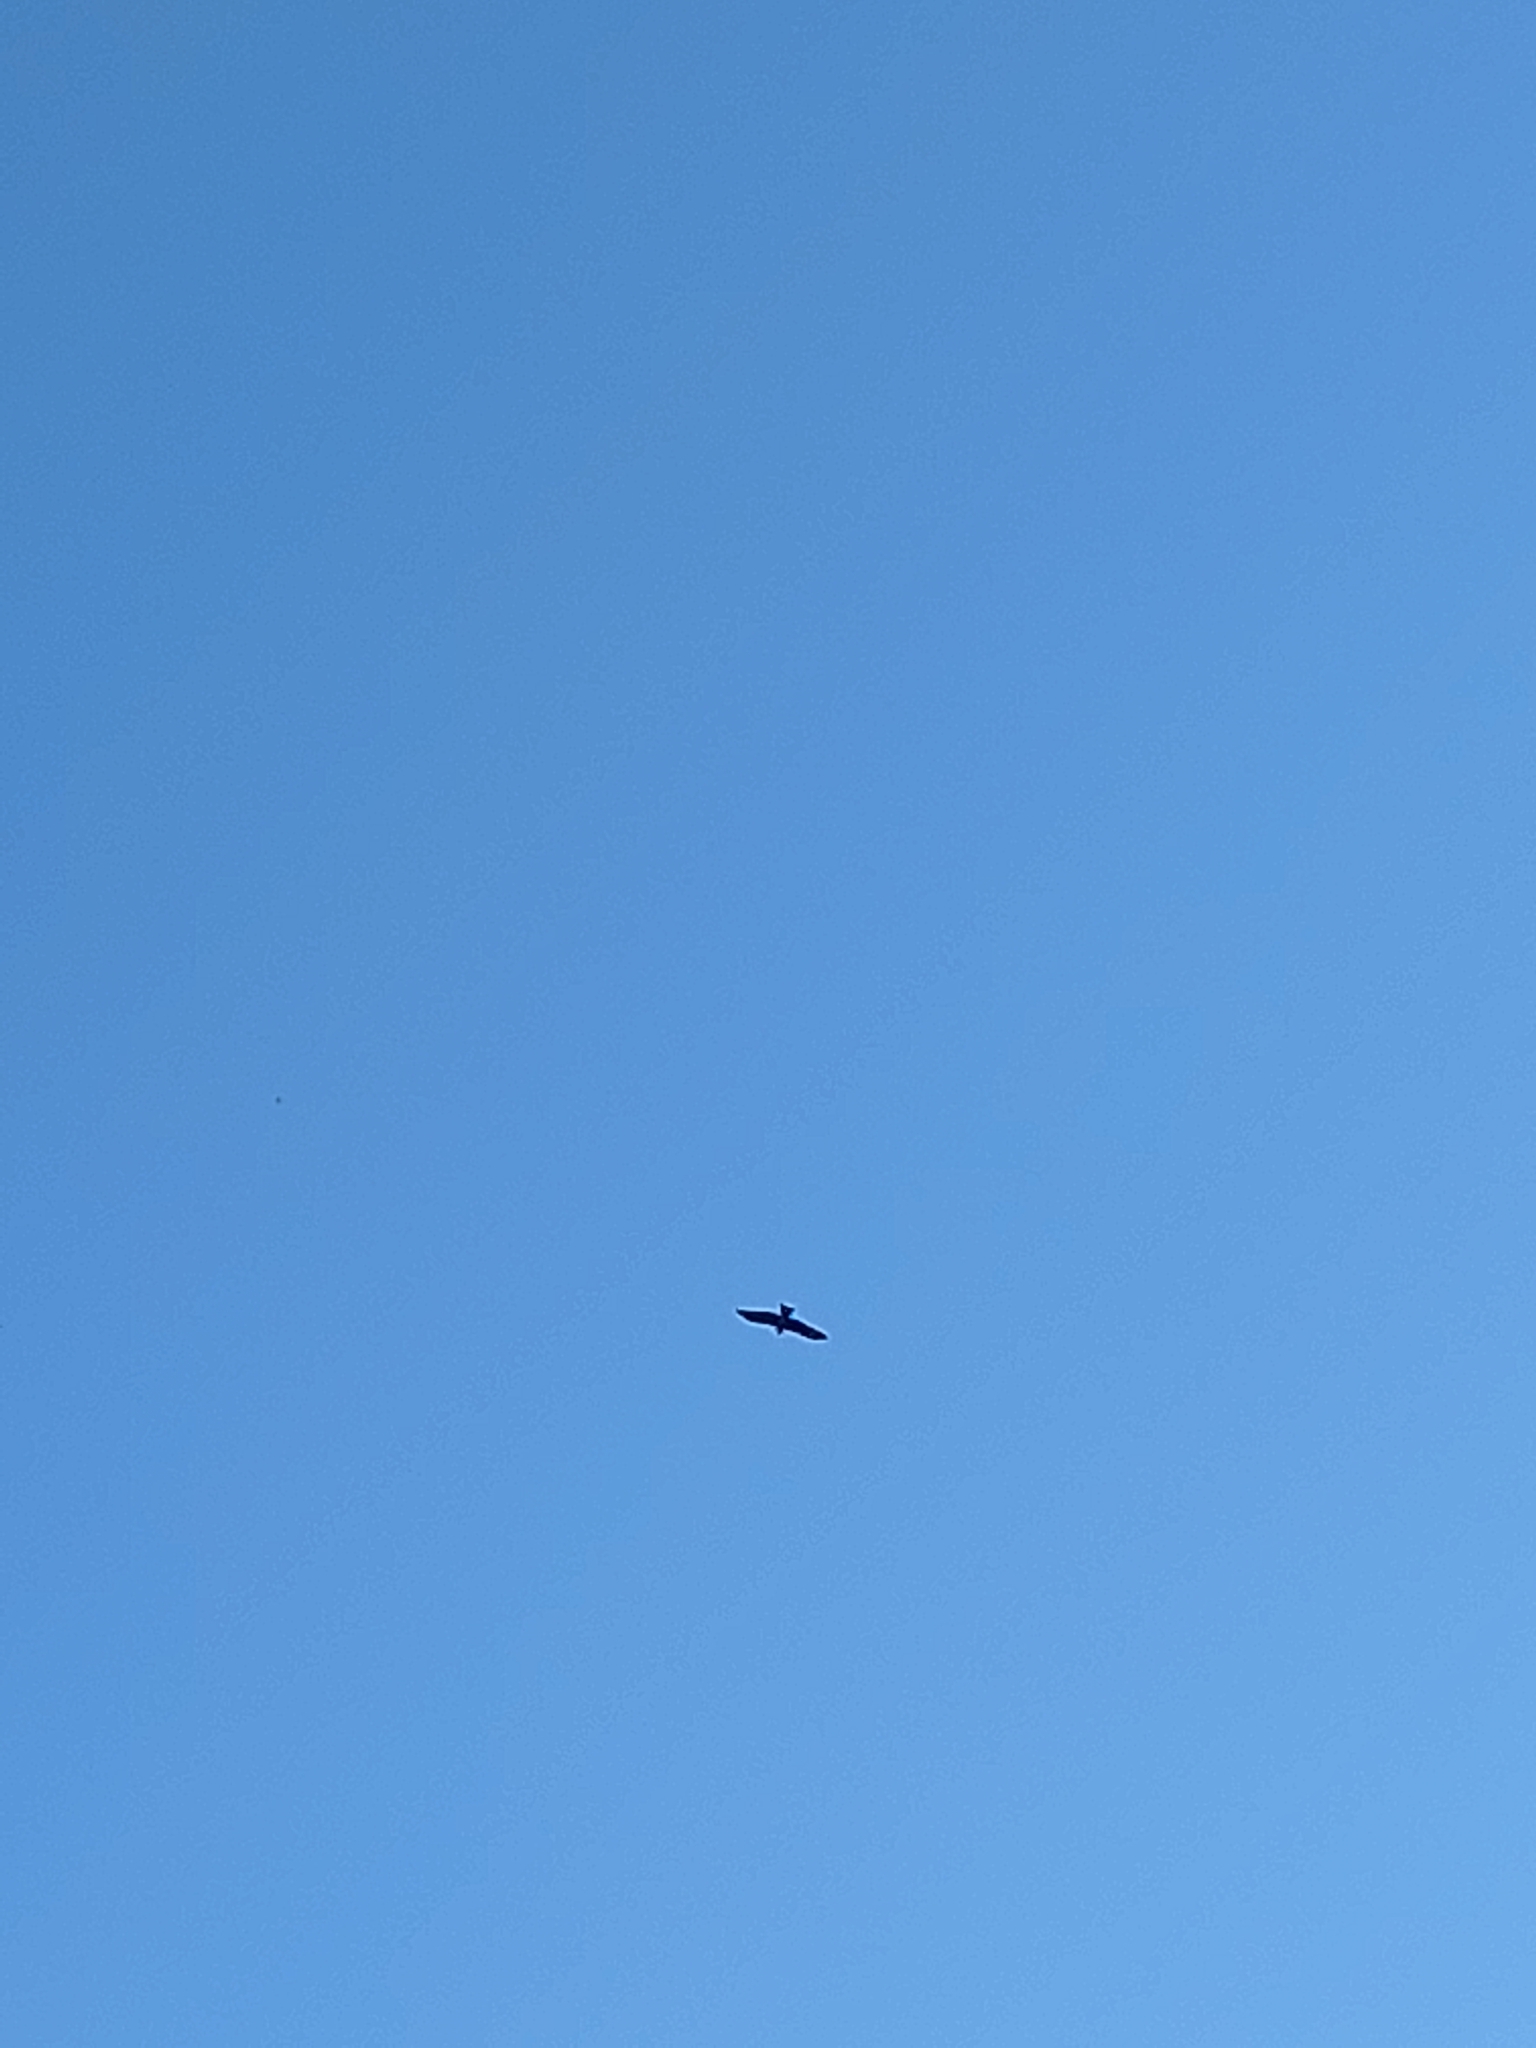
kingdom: Animalia
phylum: Chordata
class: Aves
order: Accipitriformes
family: Accipitridae
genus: Milvus
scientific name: Milvus migrans
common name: Black kite
